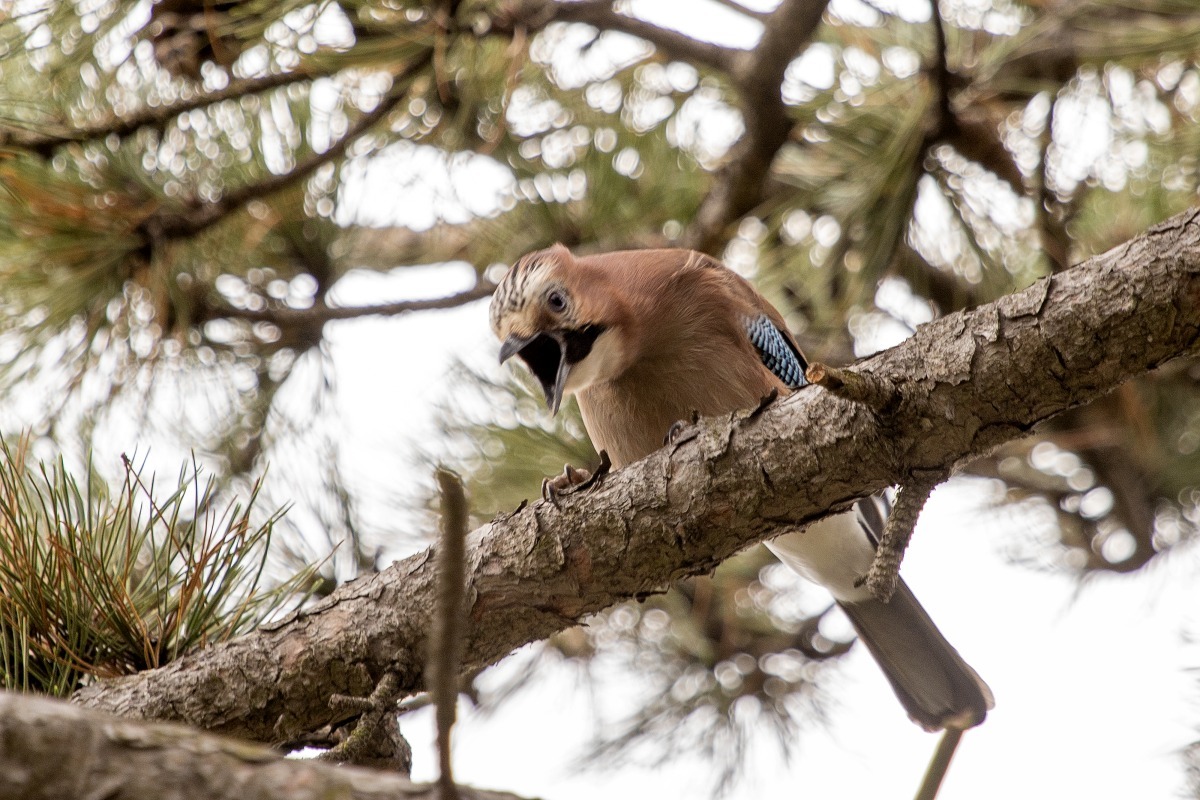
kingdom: Animalia
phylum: Chordata
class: Aves
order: Passeriformes
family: Corvidae
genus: Garrulus
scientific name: Garrulus glandarius
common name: Eurasian jay
